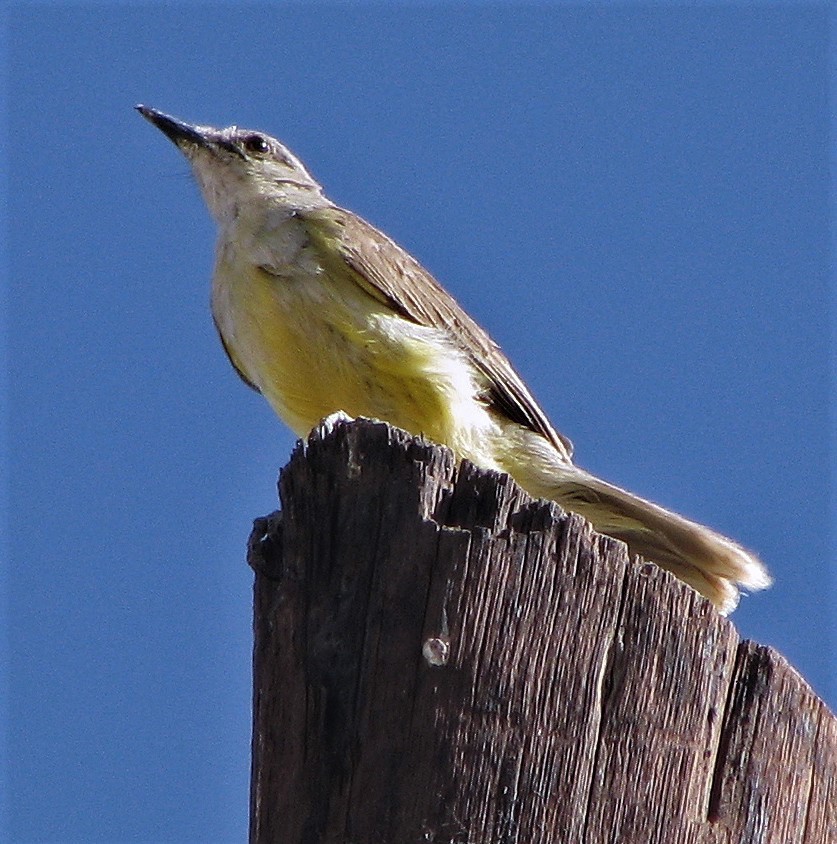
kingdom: Animalia
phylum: Chordata
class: Aves
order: Passeriformes
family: Tyrannidae
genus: Machetornis
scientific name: Machetornis rixosa
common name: Cattle tyrant
